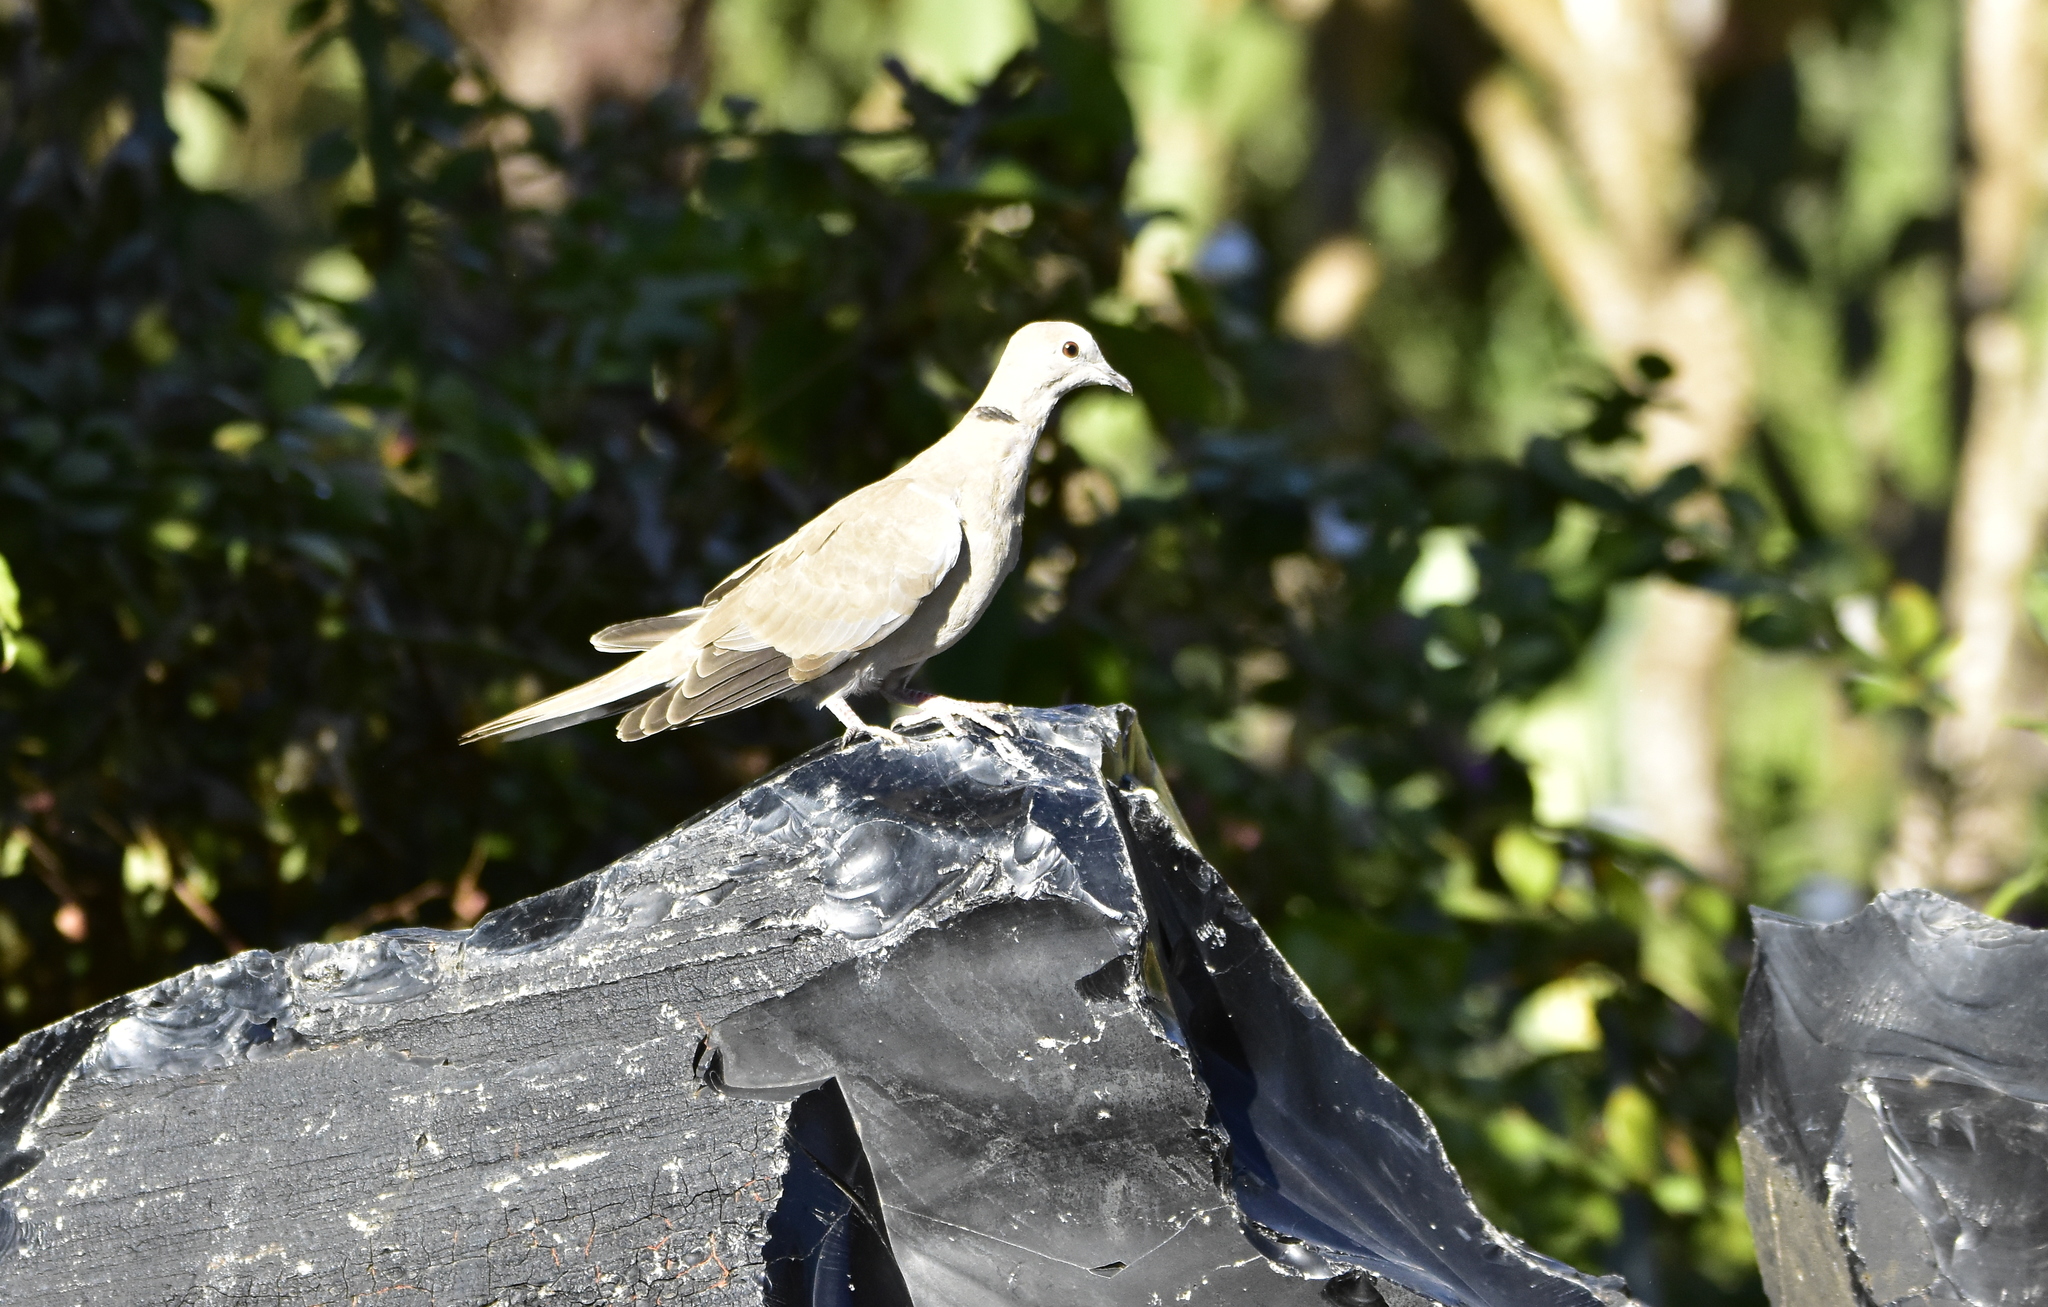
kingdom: Animalia
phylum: Chordata
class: Aves
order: Columbiformes
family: Columbidae
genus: Streptopelia
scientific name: Streptopelia decaocto
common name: Eurasian collared dove
